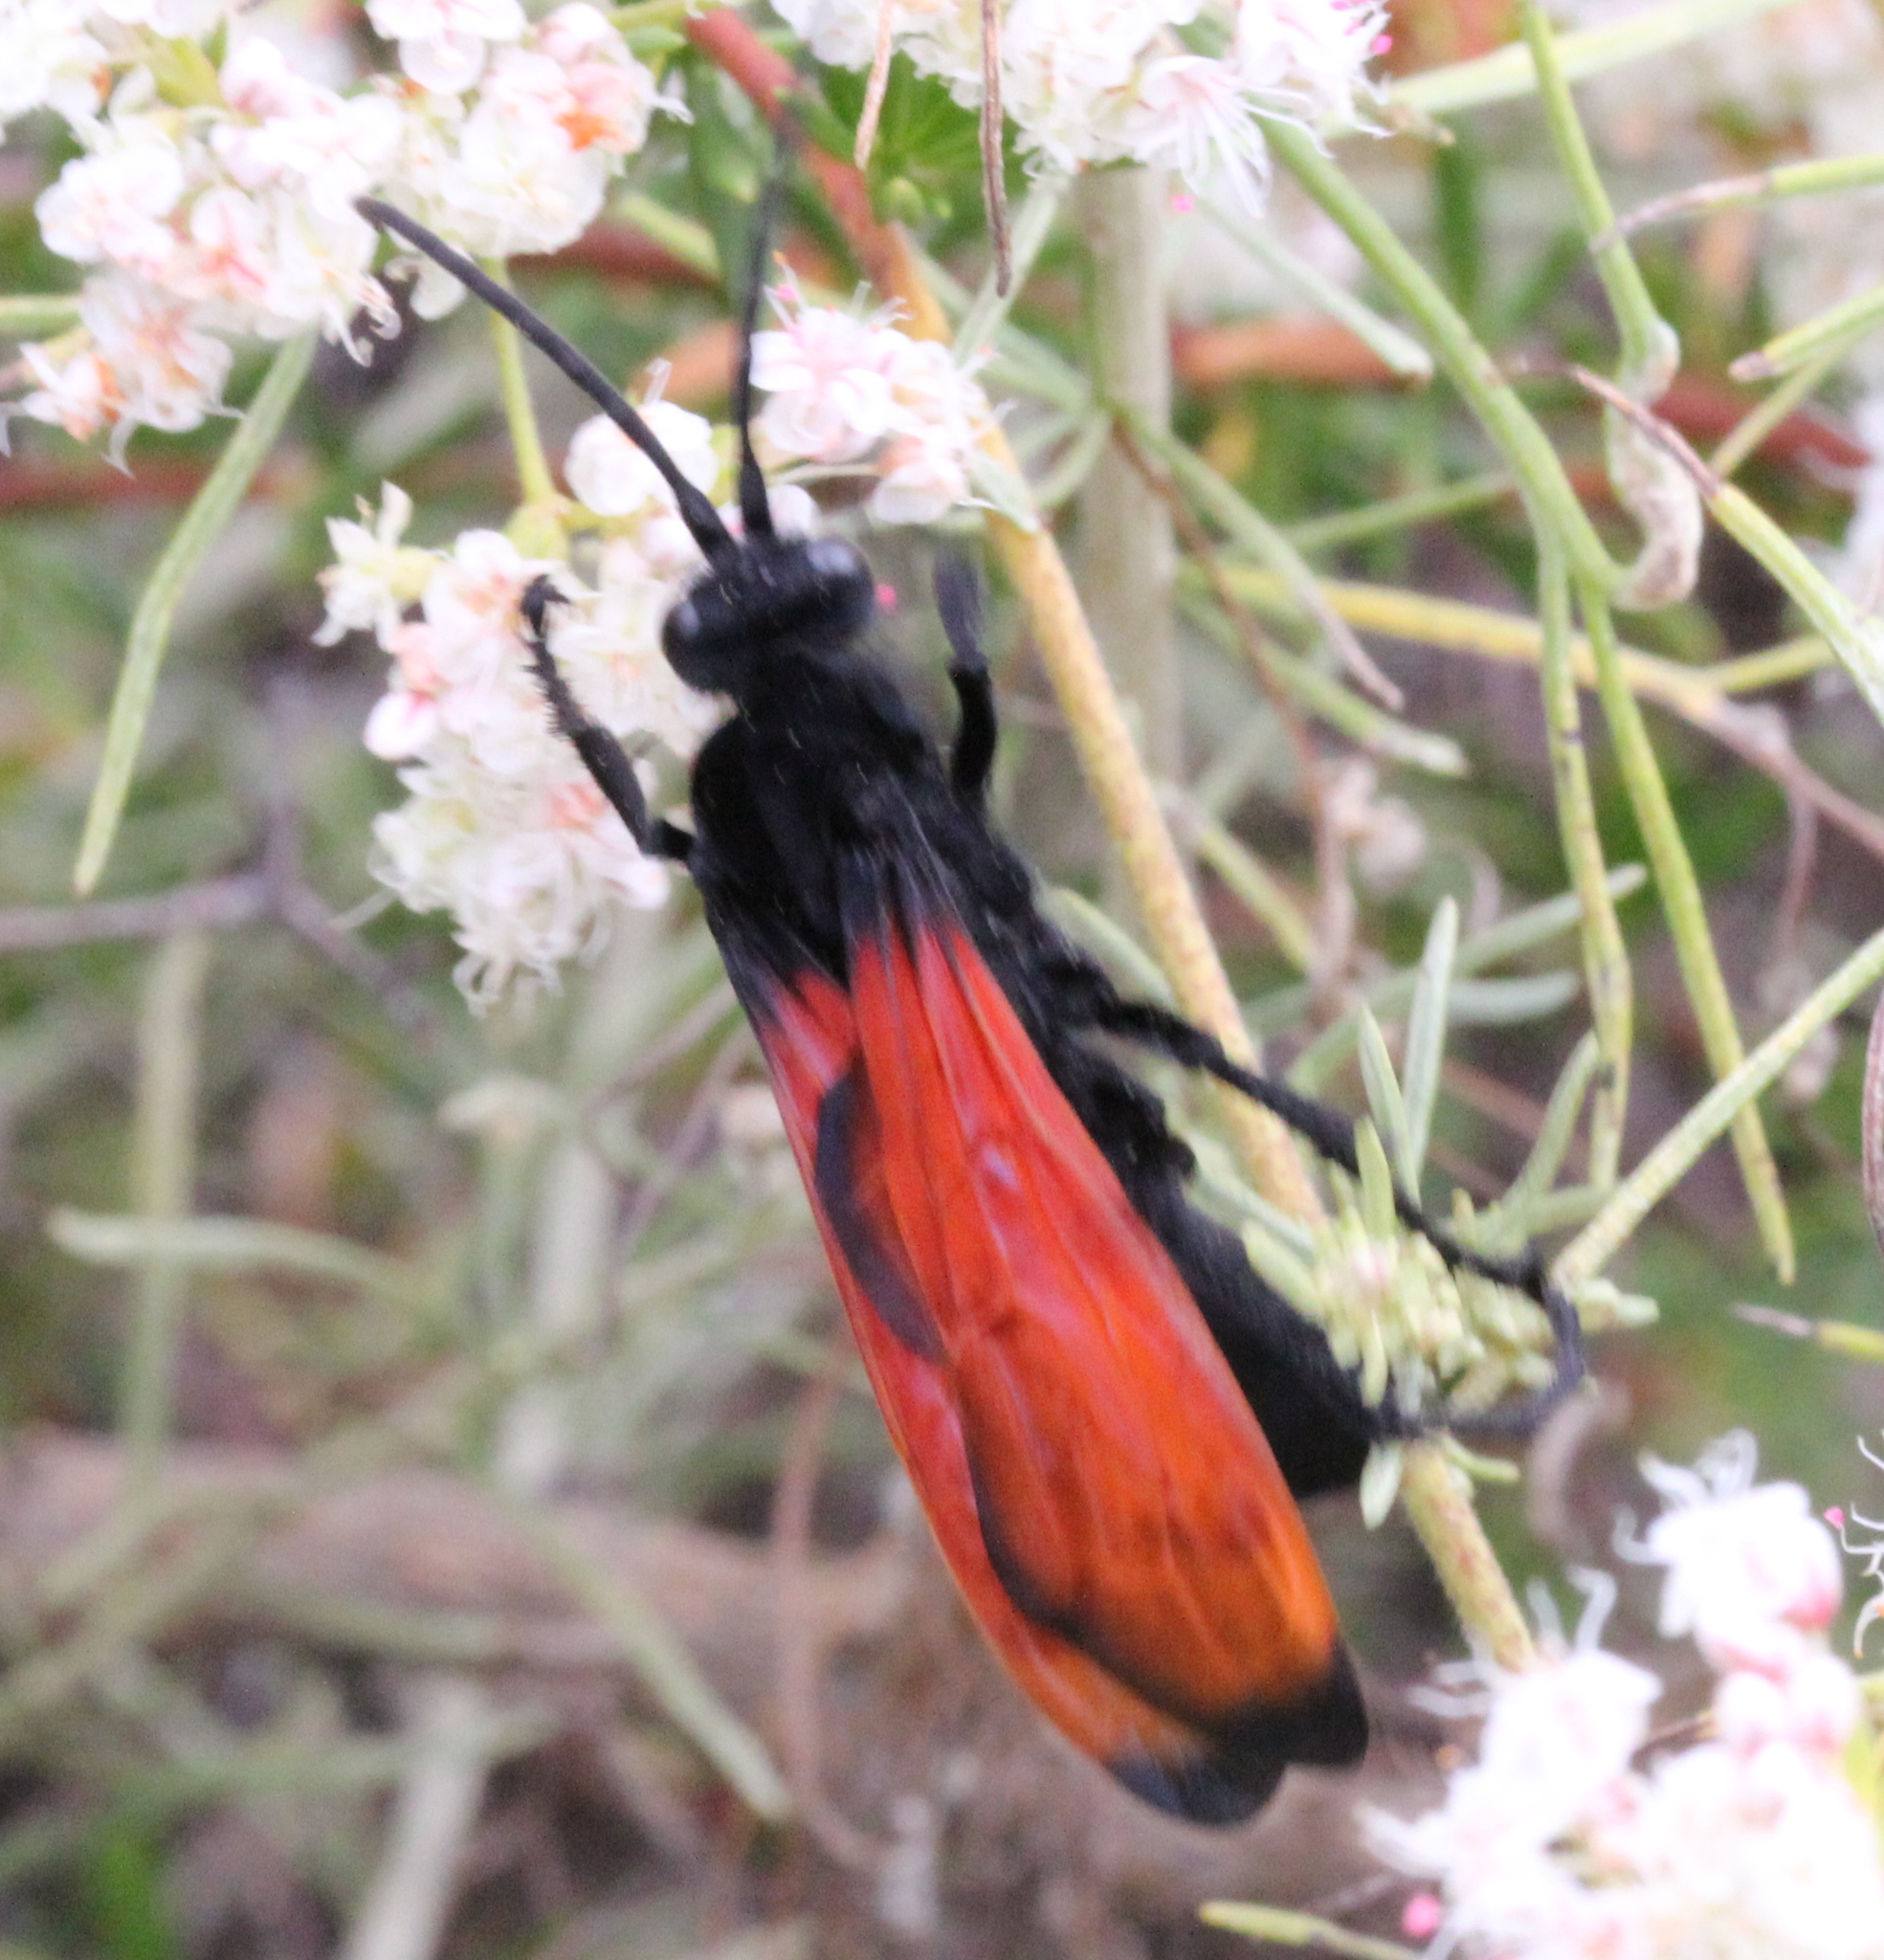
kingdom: Animalia
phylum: Arthropoda
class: Insecta
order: Hymenoptera
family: Pompilidae
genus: Hemipepsis
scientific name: Hemipepsis ustulata
